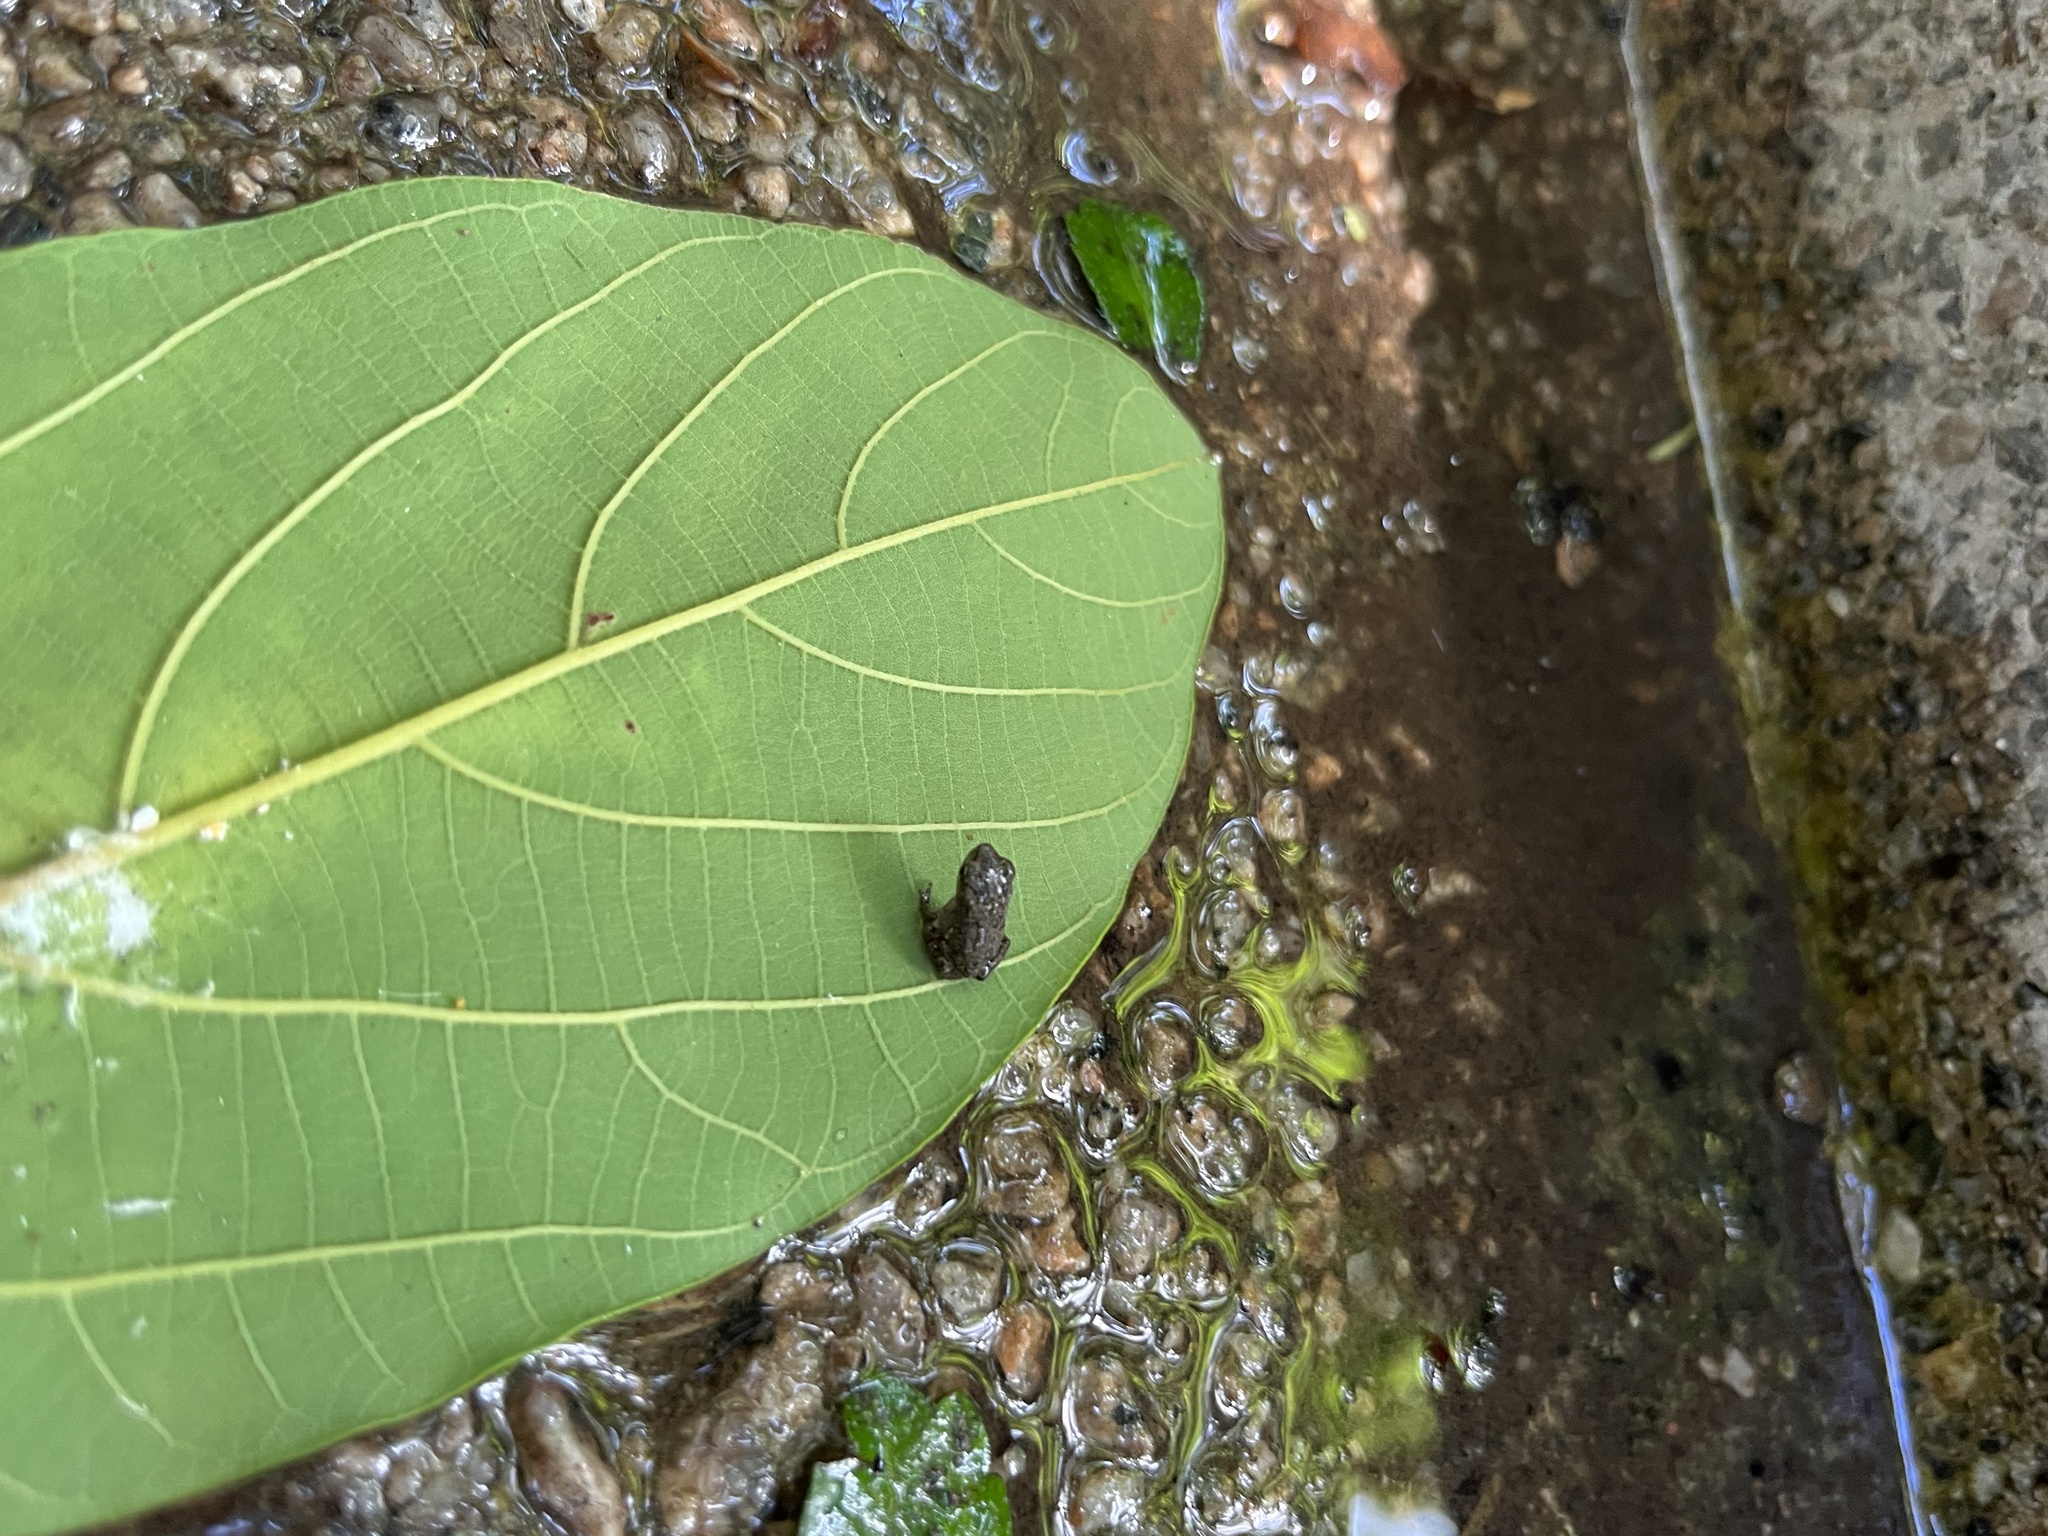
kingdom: Animalia
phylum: Chordata
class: Amphibia
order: Anura
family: Bufonidae
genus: Duttaphrynus
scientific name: Duttaphrynus melanostictus
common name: Common sunda toad
